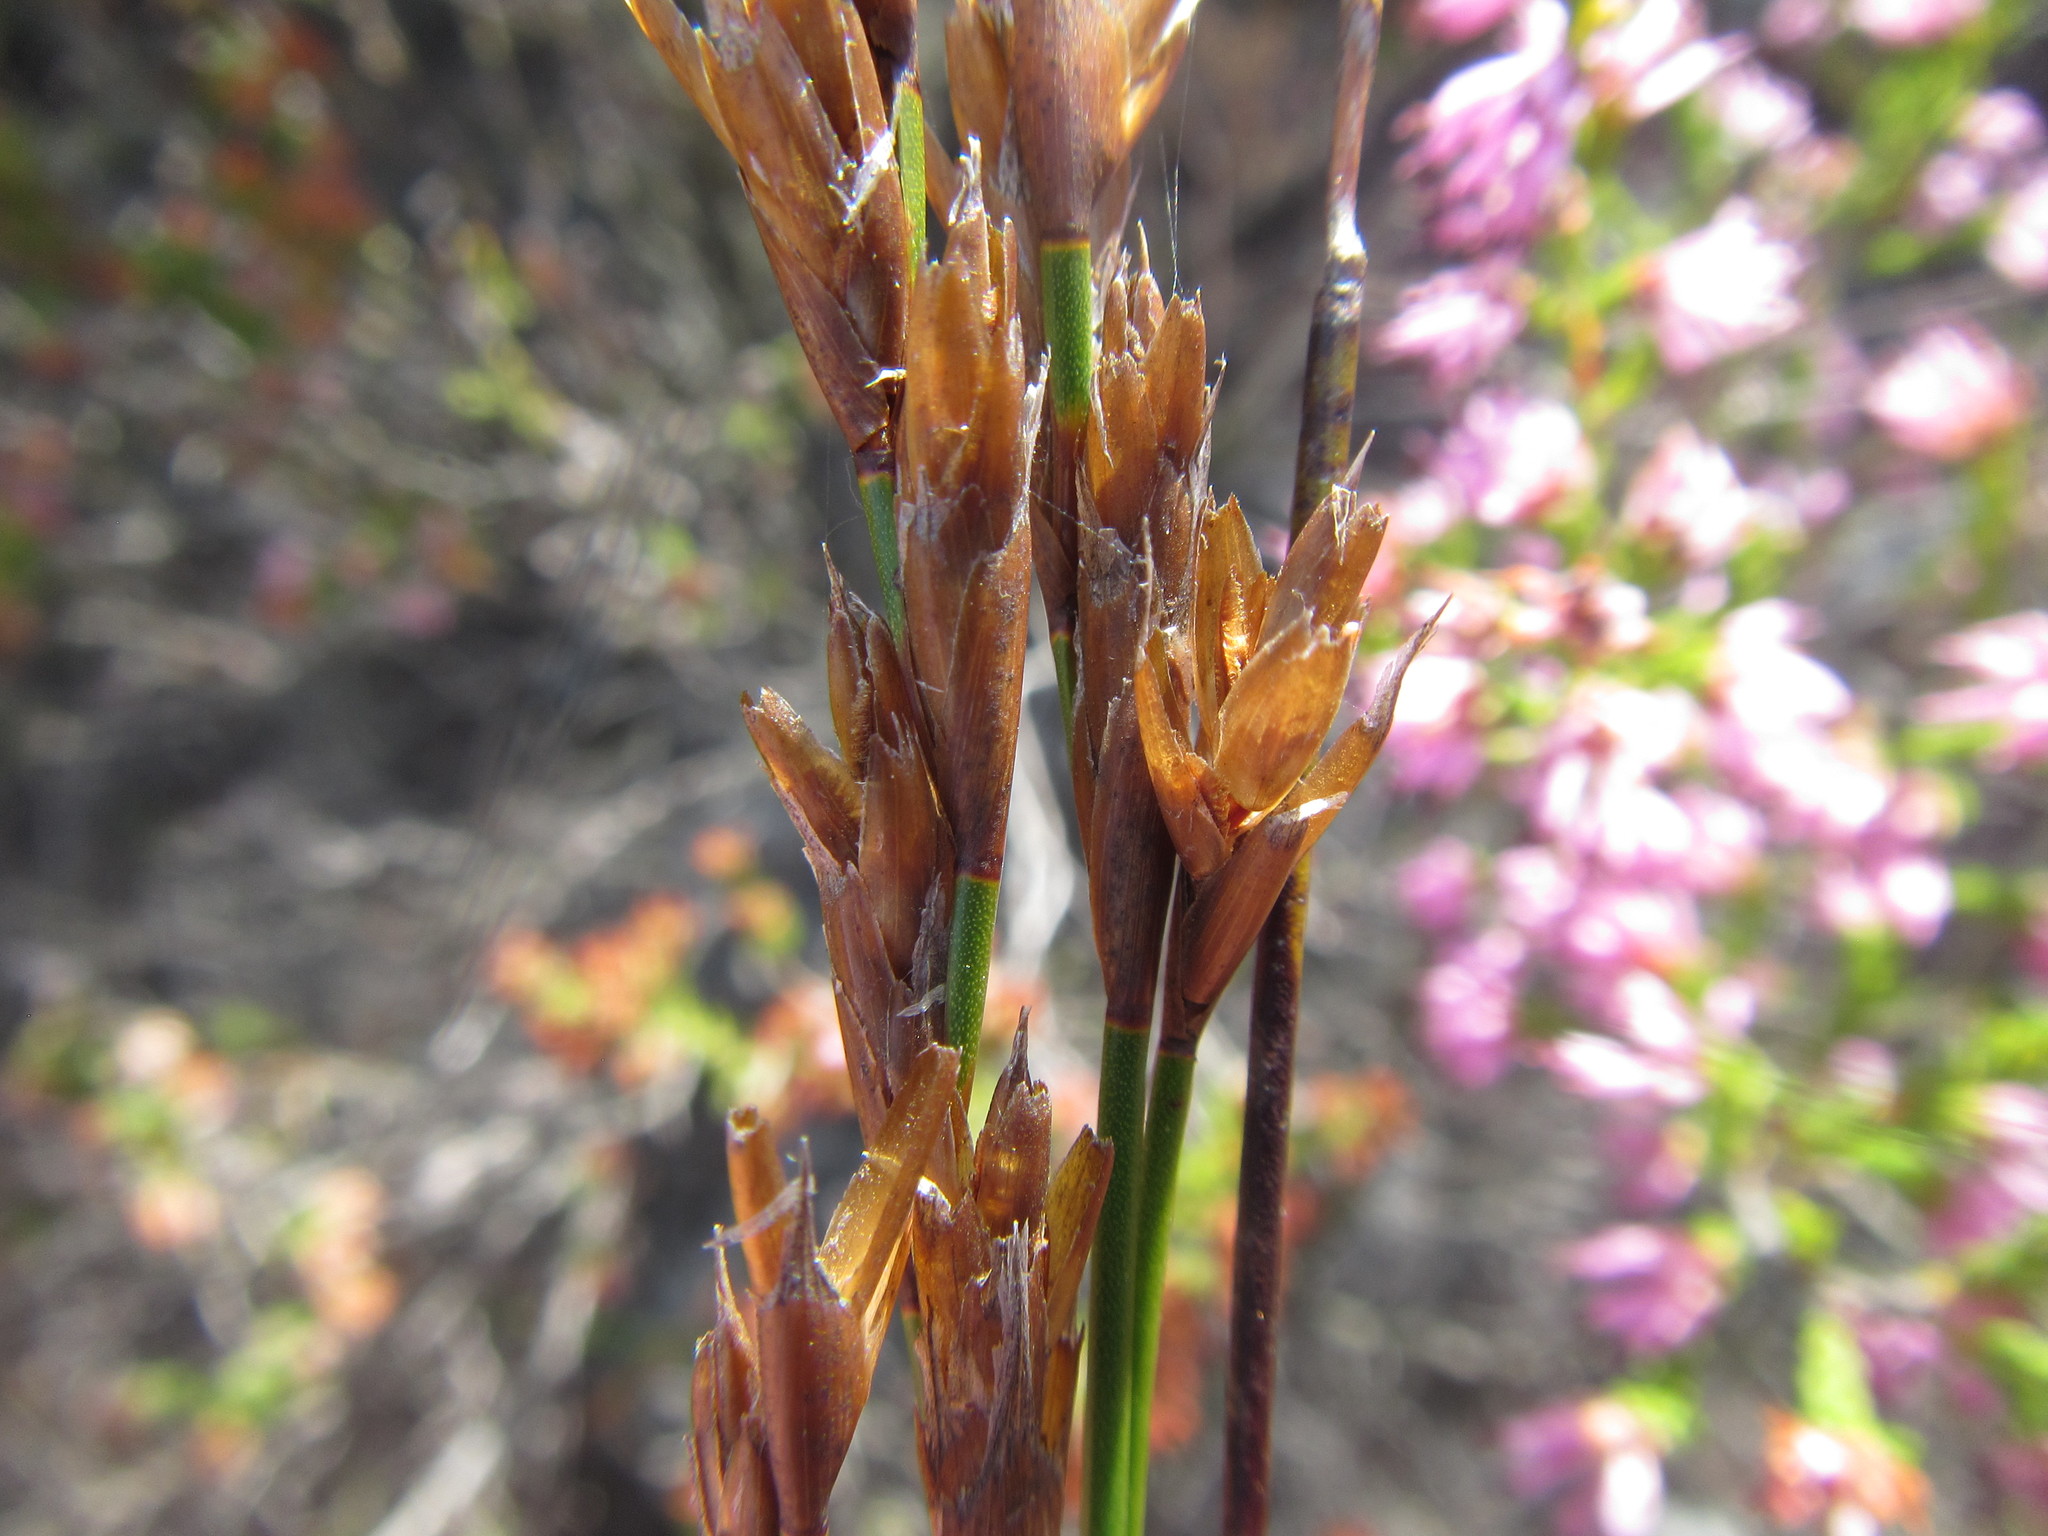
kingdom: Plantae
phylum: Tracheophyta
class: Liliopsida
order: Poales
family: Restionaceae
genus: Restio
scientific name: Restio distichus
